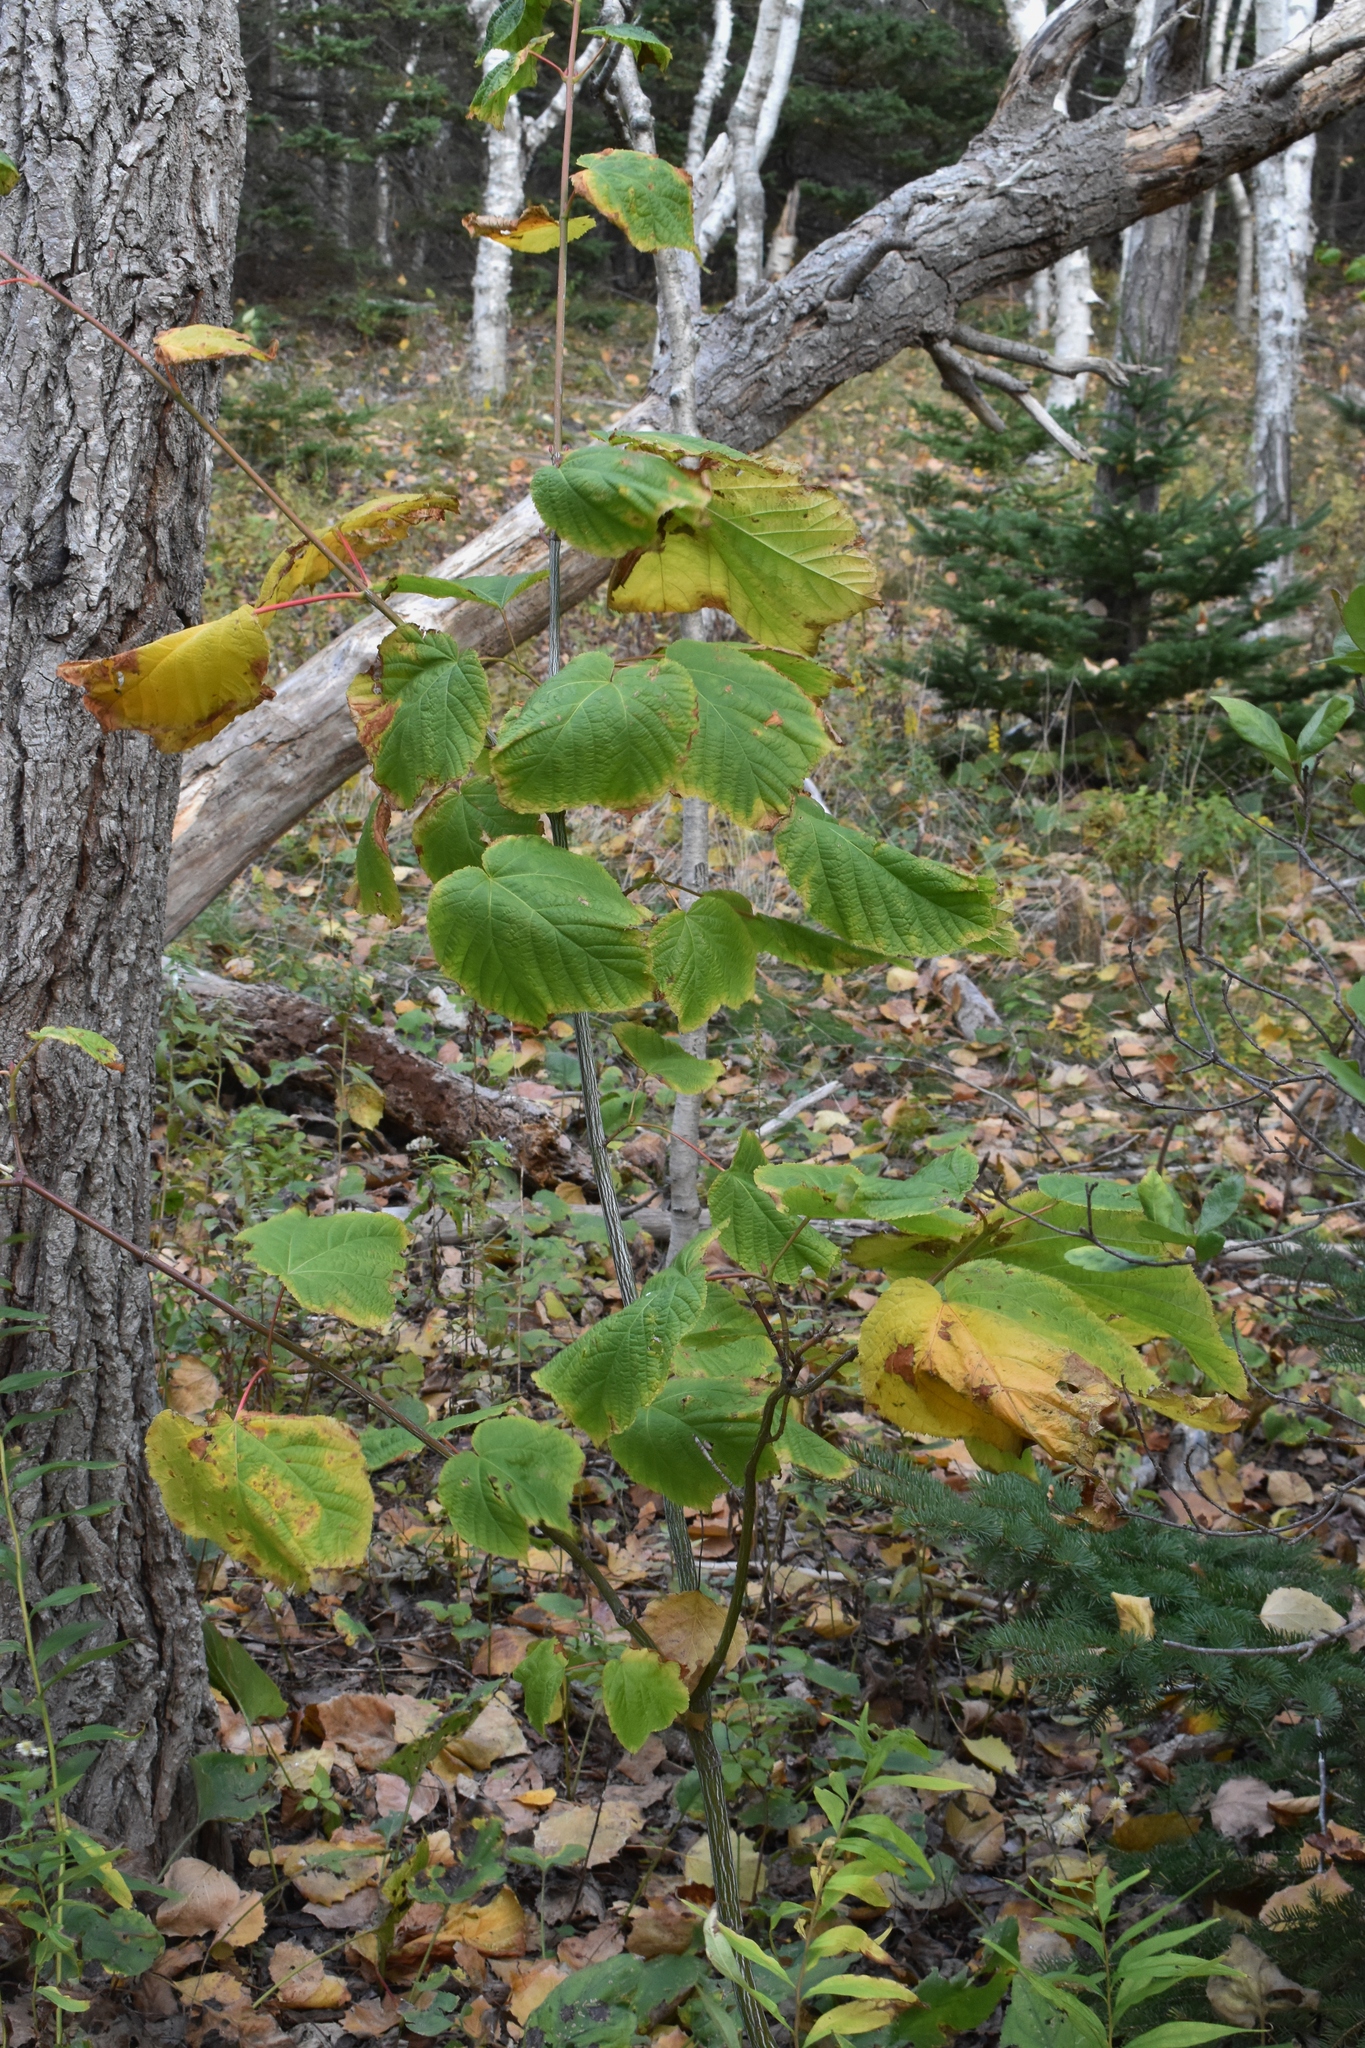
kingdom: Plantae
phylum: Tracheophyta
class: Magnoliopsida
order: Sapindales
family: Sapindaceae
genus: Acer
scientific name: Acer pensylvanicum
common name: Moosewood
